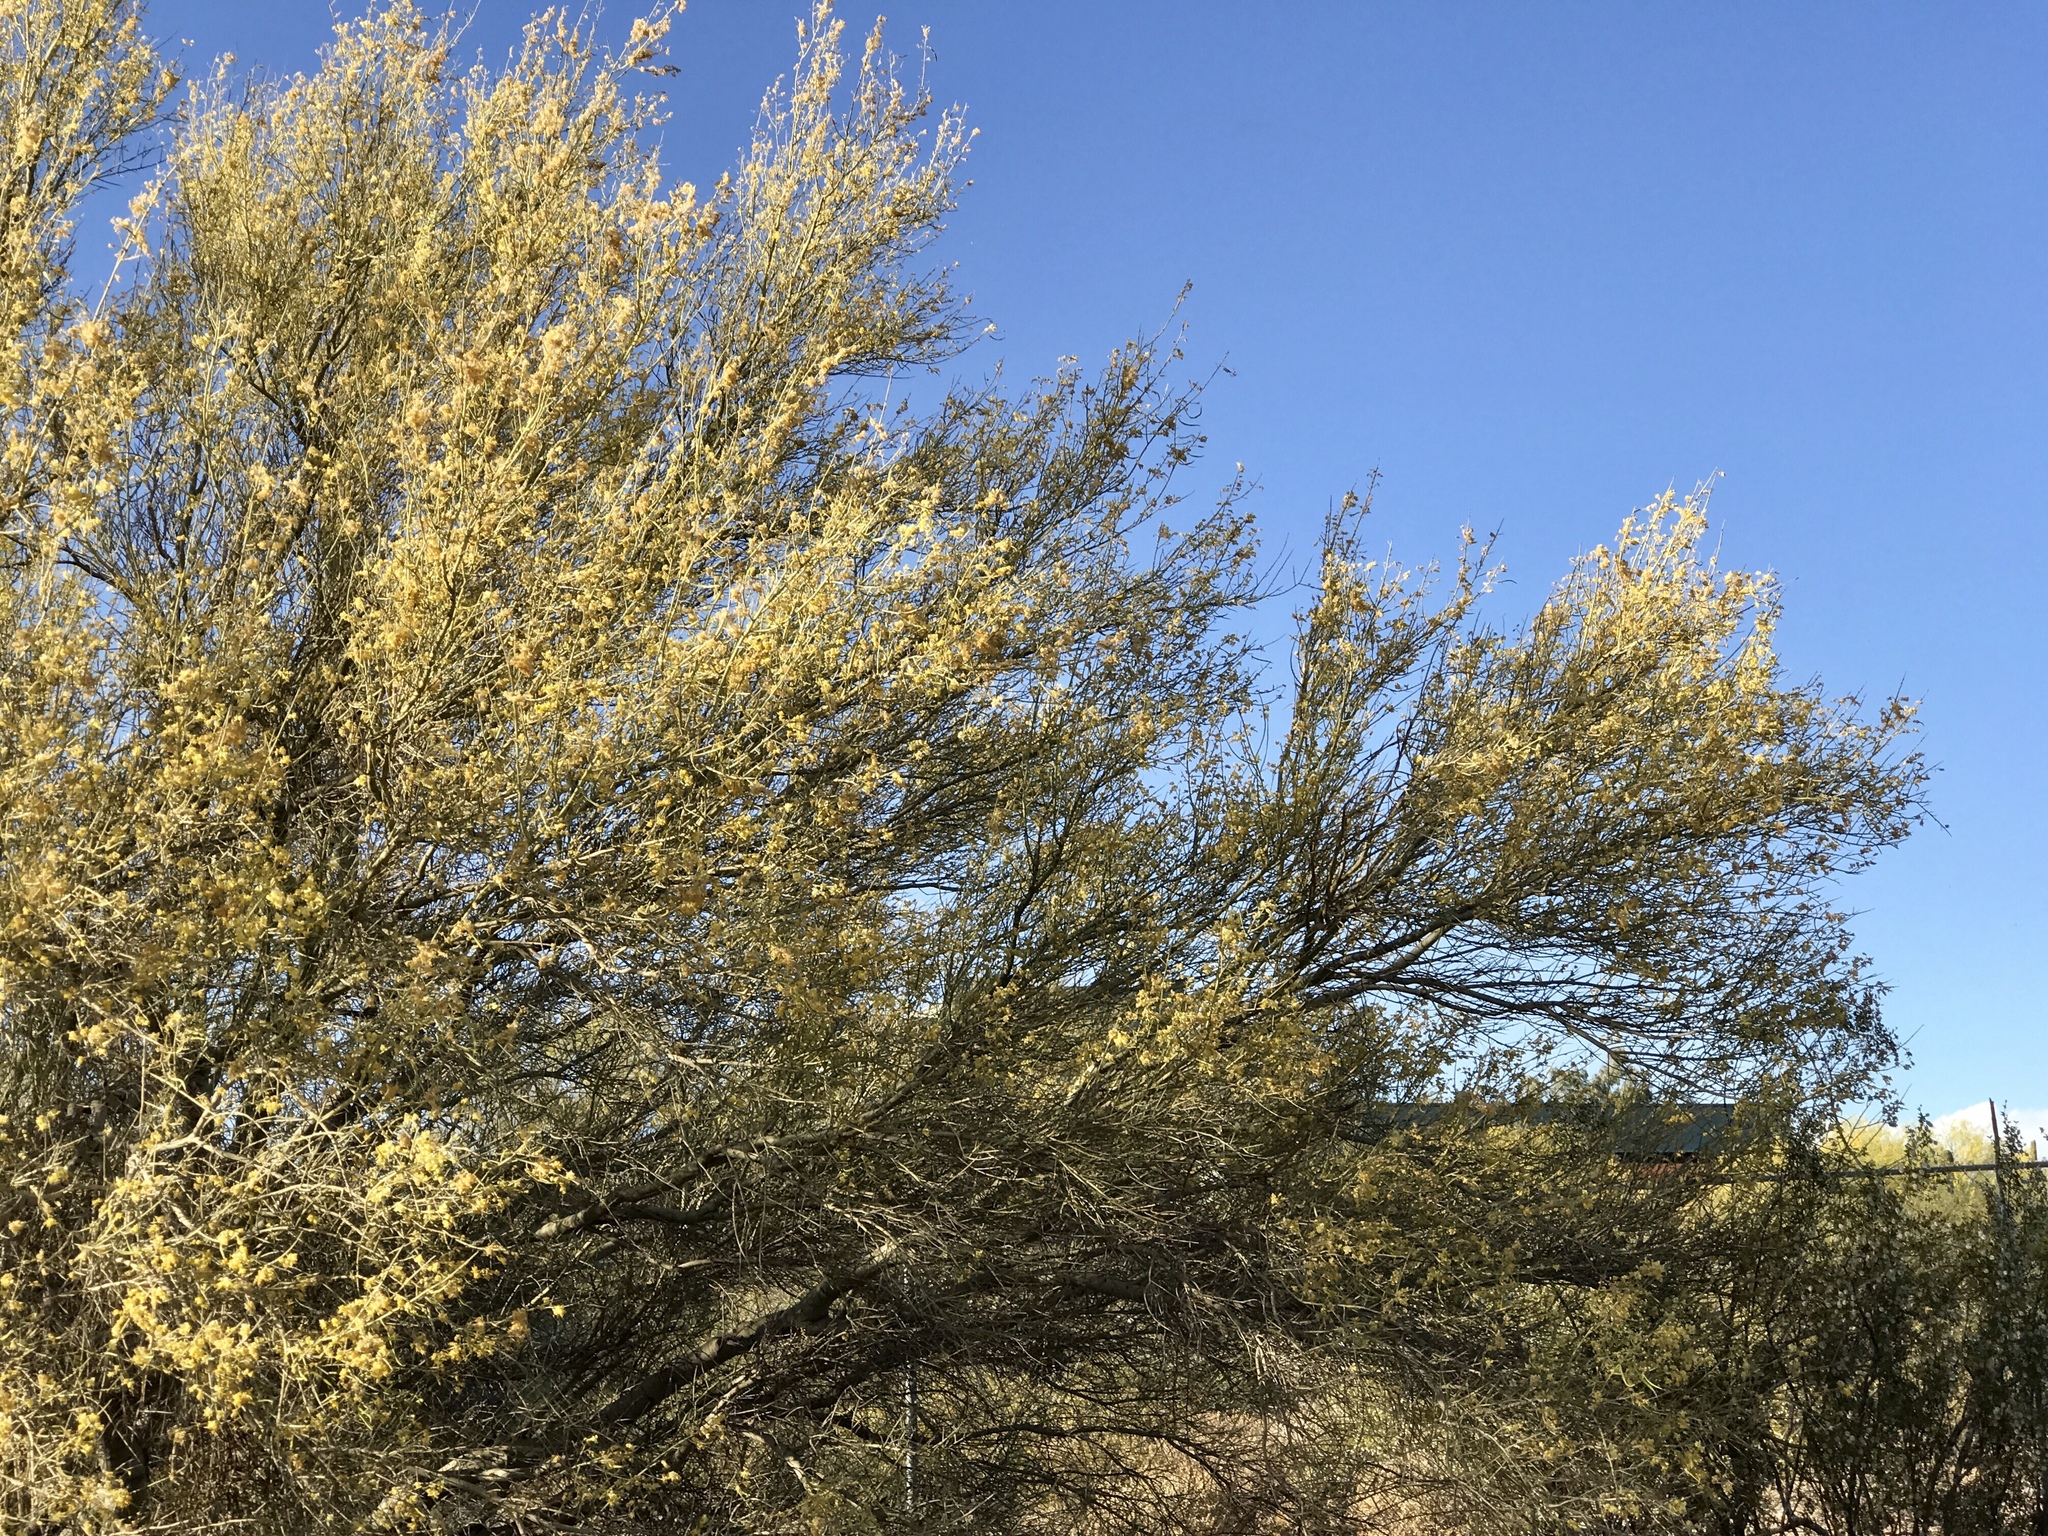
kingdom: Plantae
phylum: Tracheophyta
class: Magnoliopsida
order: Fabales
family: Fabaceae
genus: Parkinsonia
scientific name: Parkinsonia microphylla
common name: Yellow paloverde
